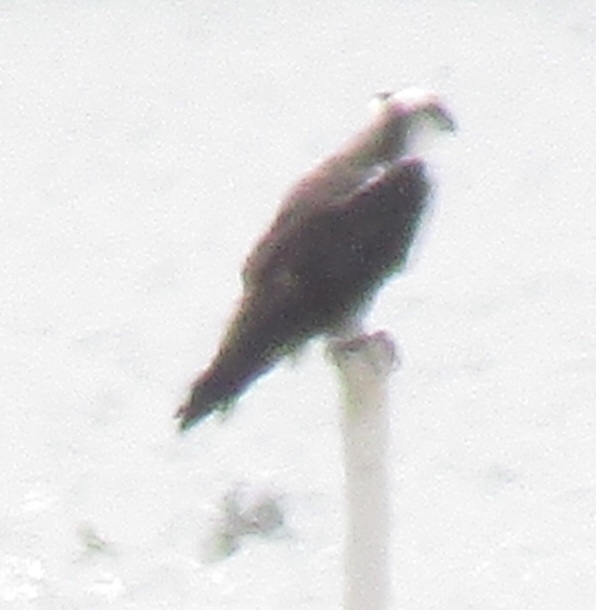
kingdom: Animalia
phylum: Chordata
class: Aves
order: Accipitriformes
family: Pandionidae
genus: Pandion
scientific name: Pandion haliaetus
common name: Osprey
